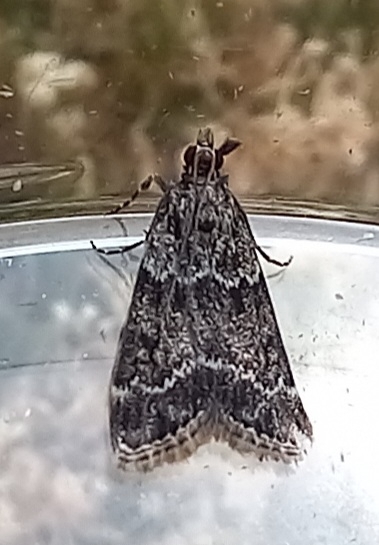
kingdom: Animalia
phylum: Arthropoda
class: Insecta
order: Lepidoptera
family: Crambidae
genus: Eudonia
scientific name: Eudonia mercurella
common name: Small grey
